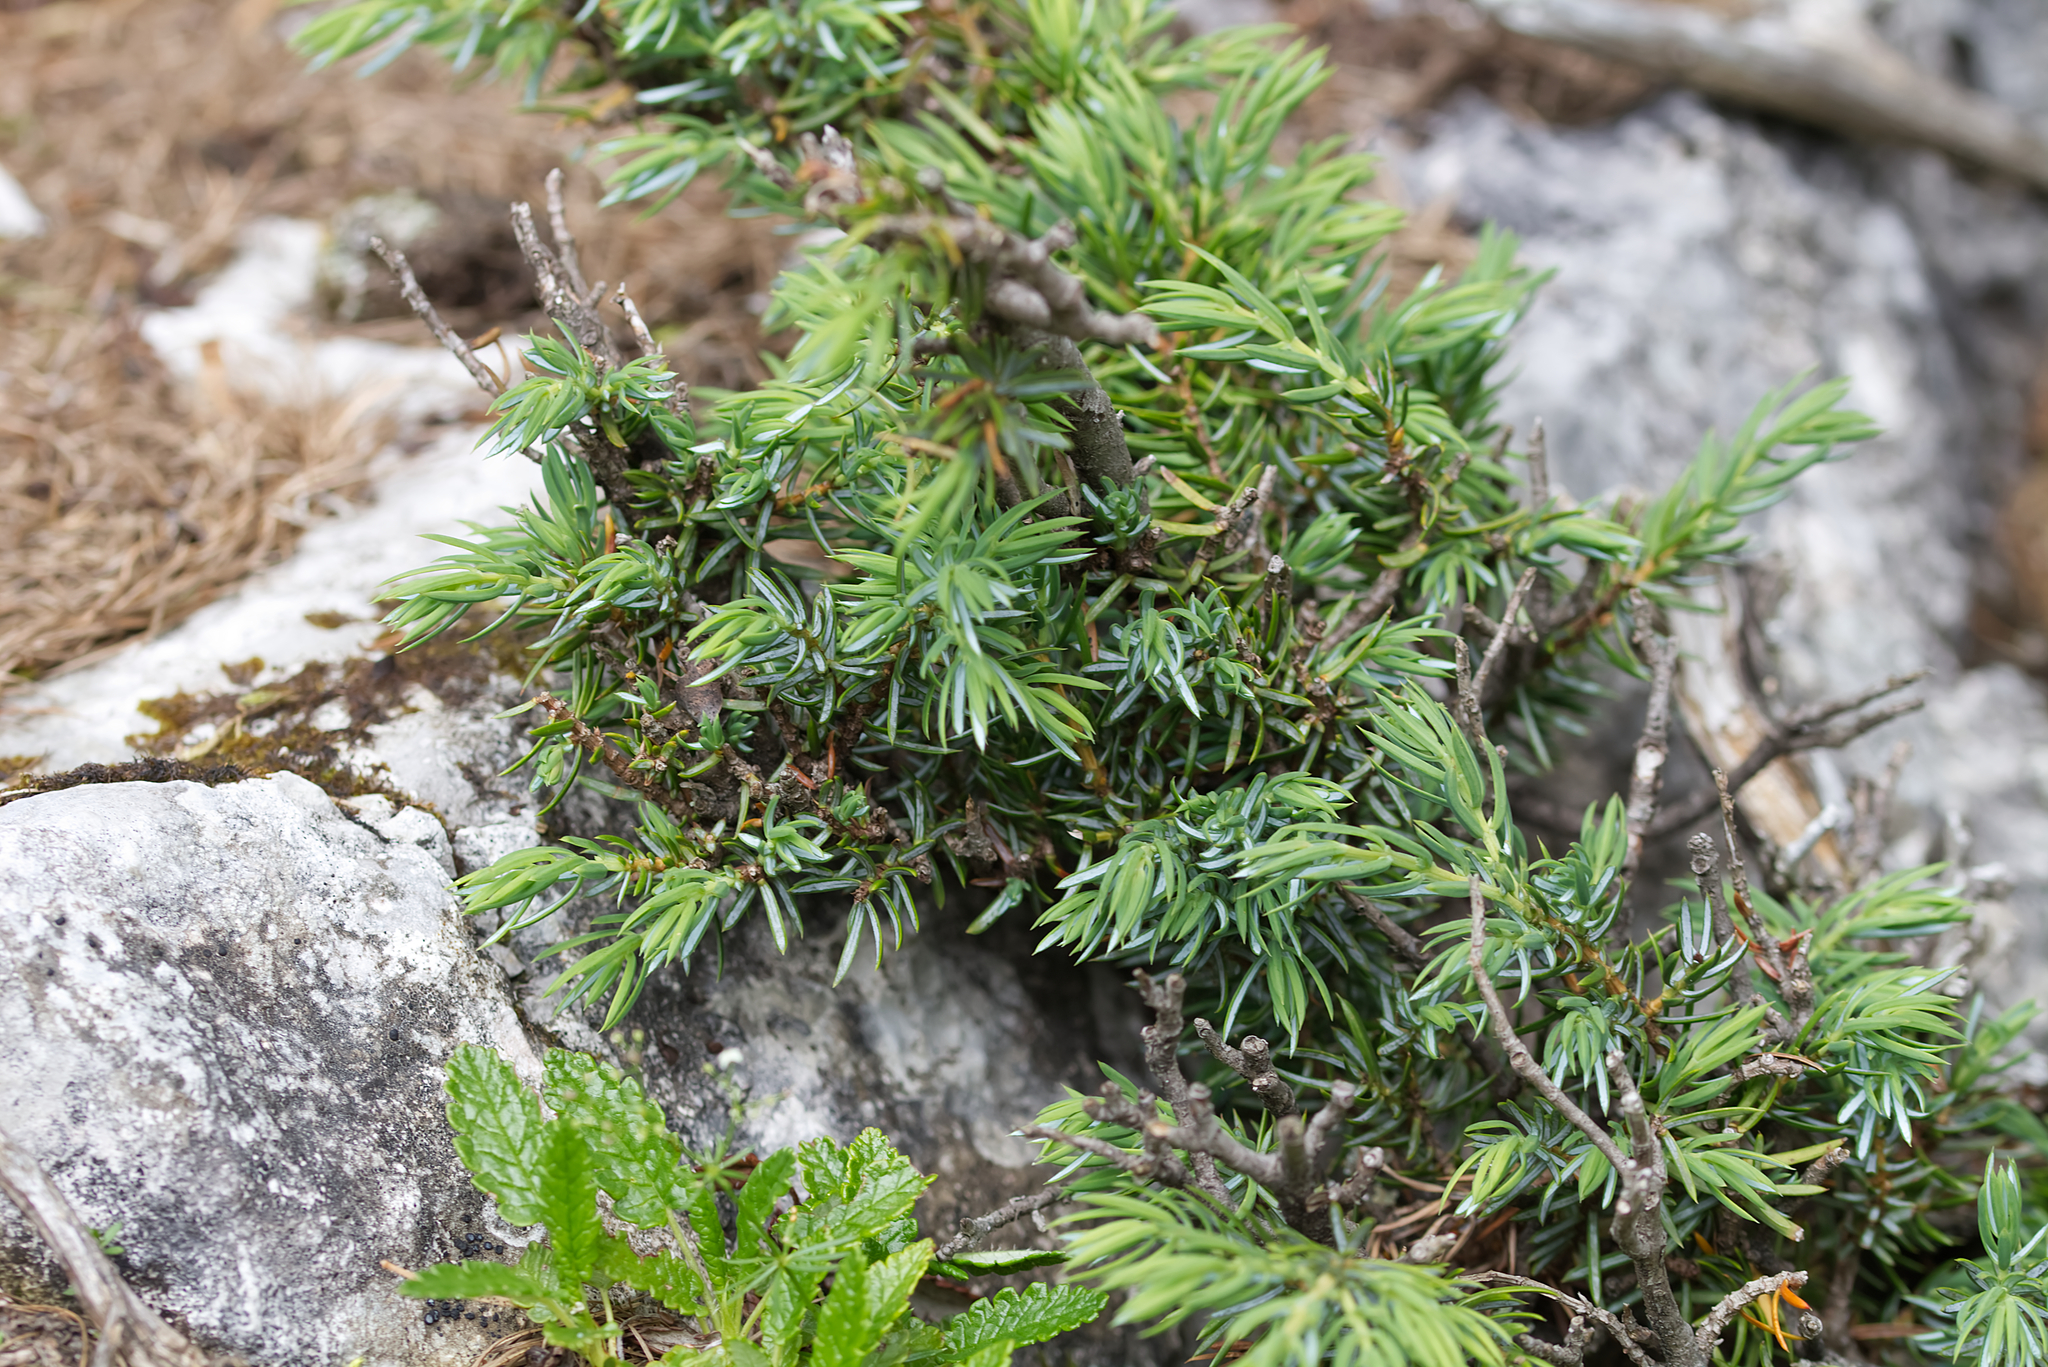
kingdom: Plantae
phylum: Tracheophyta
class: Pinopsida
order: Pinales
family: Cupressaceae
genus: Juniperus
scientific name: Juniperus communis
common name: Common juniper
